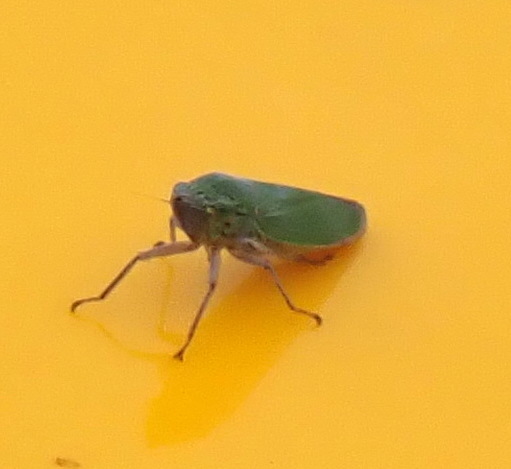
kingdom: Animalia
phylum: Arthropoda
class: Insecta
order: Hemiptera
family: Cicadellidae
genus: Draeculacephala
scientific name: Draeculacephala inscripta
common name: Leafhopper
